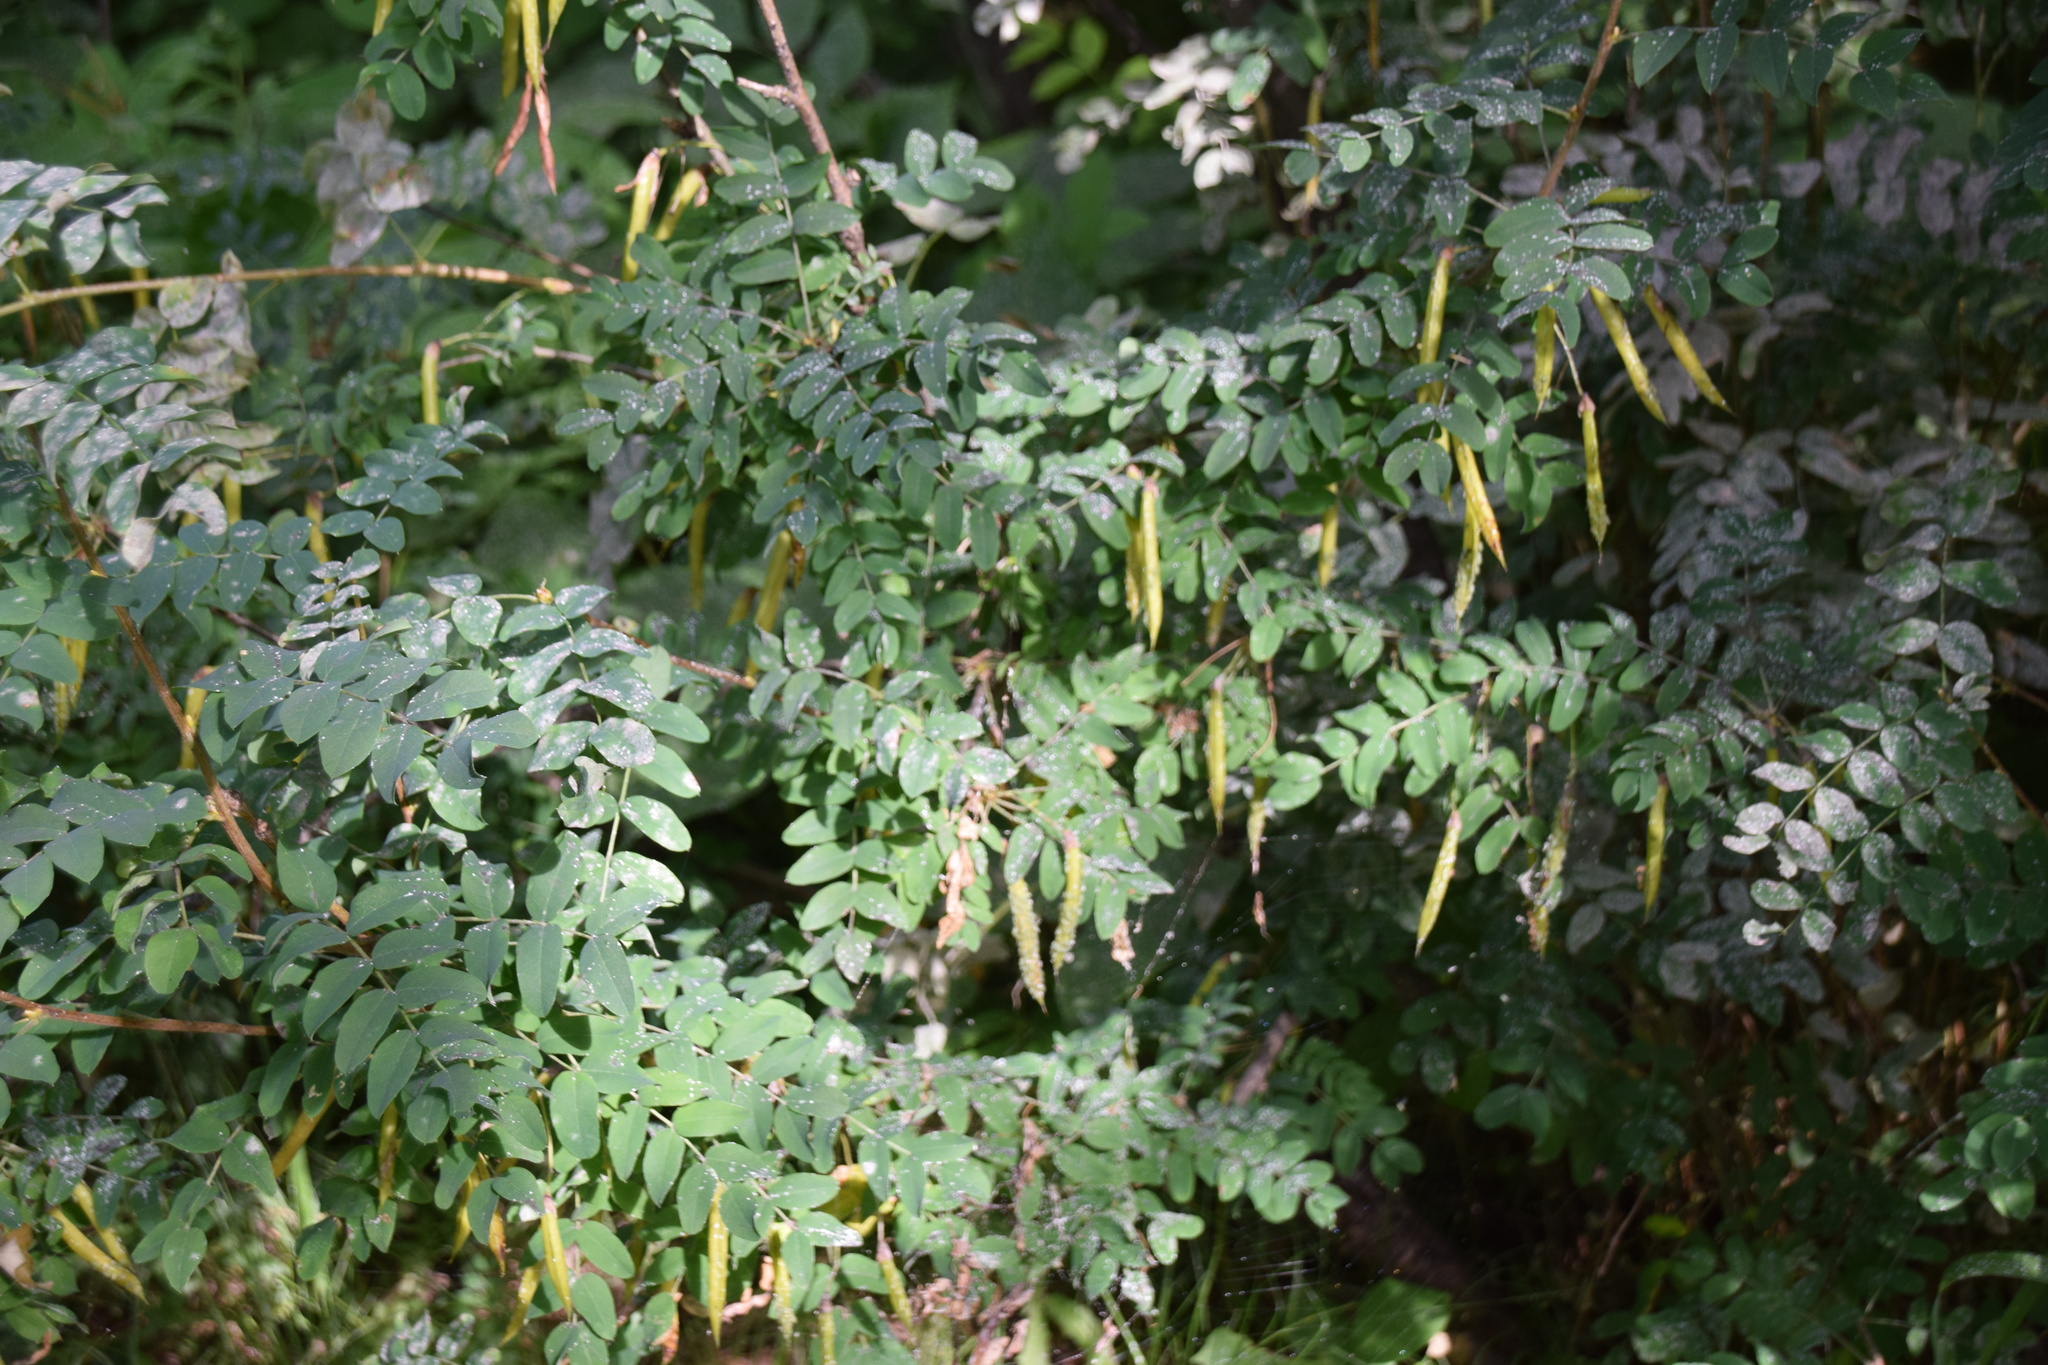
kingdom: Plantae
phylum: Tracheophyta
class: Magnoliopsida
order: Fabales
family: Fabaceae
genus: Caragana
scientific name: Caragana arborescens
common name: Siberian peashrub
